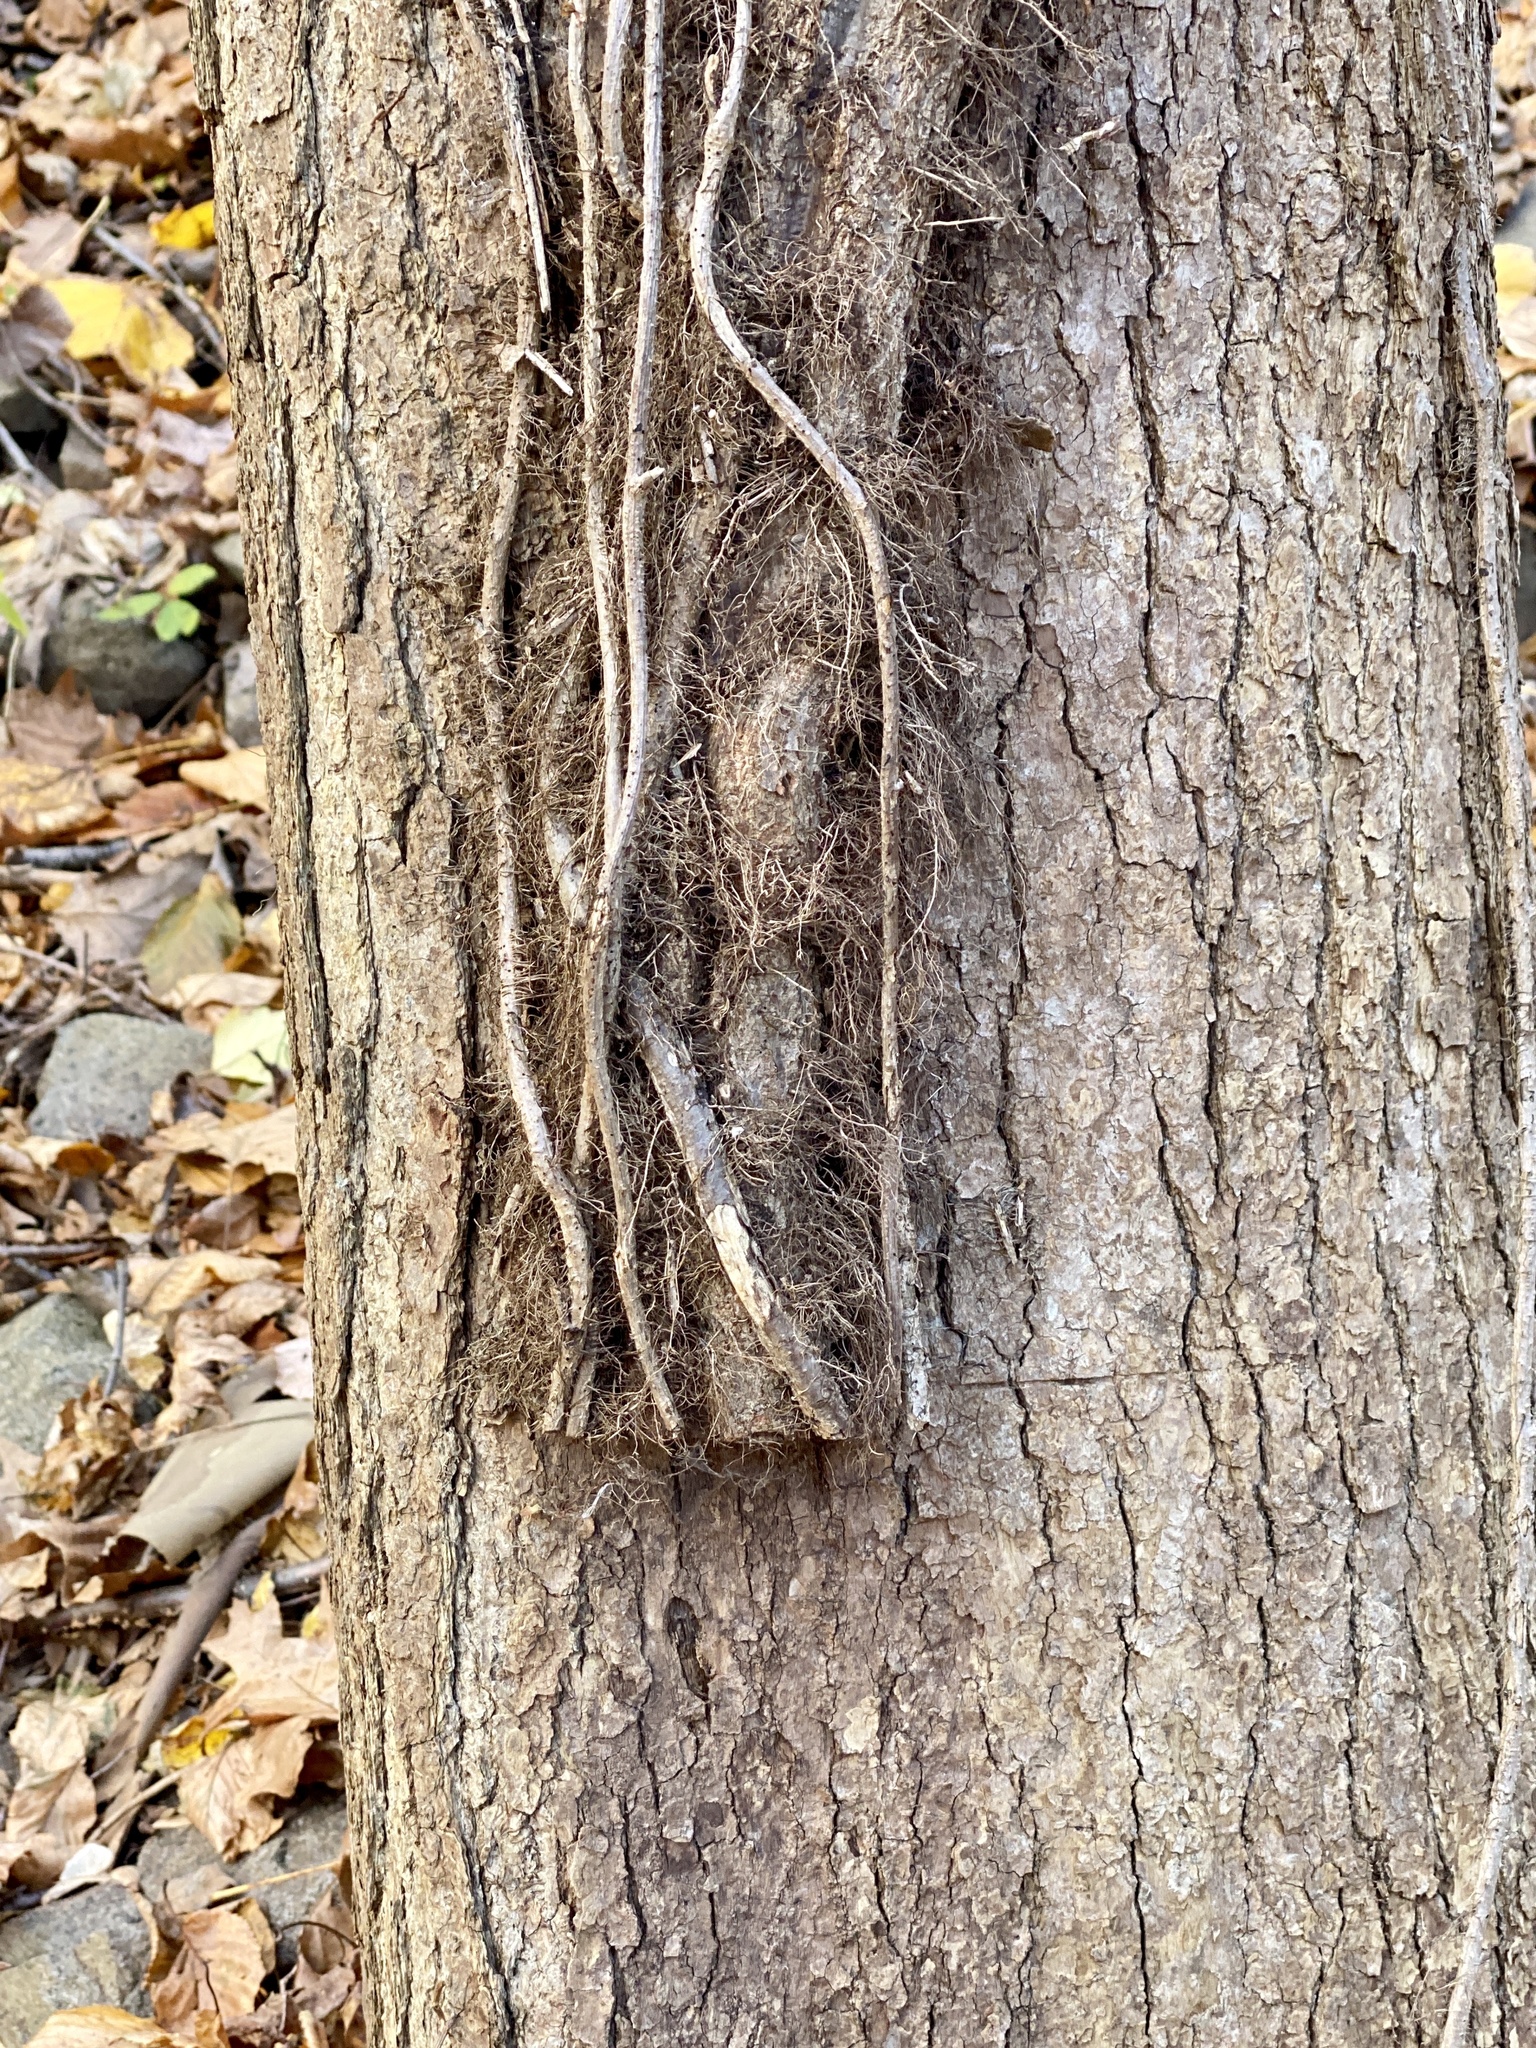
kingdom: Plantae
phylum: Tracheophyta
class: Magnoliopsida
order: Sapindales
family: Anacardiaceae
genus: Toxicodendron
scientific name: Toxicodendron radicans
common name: Poison ivy
